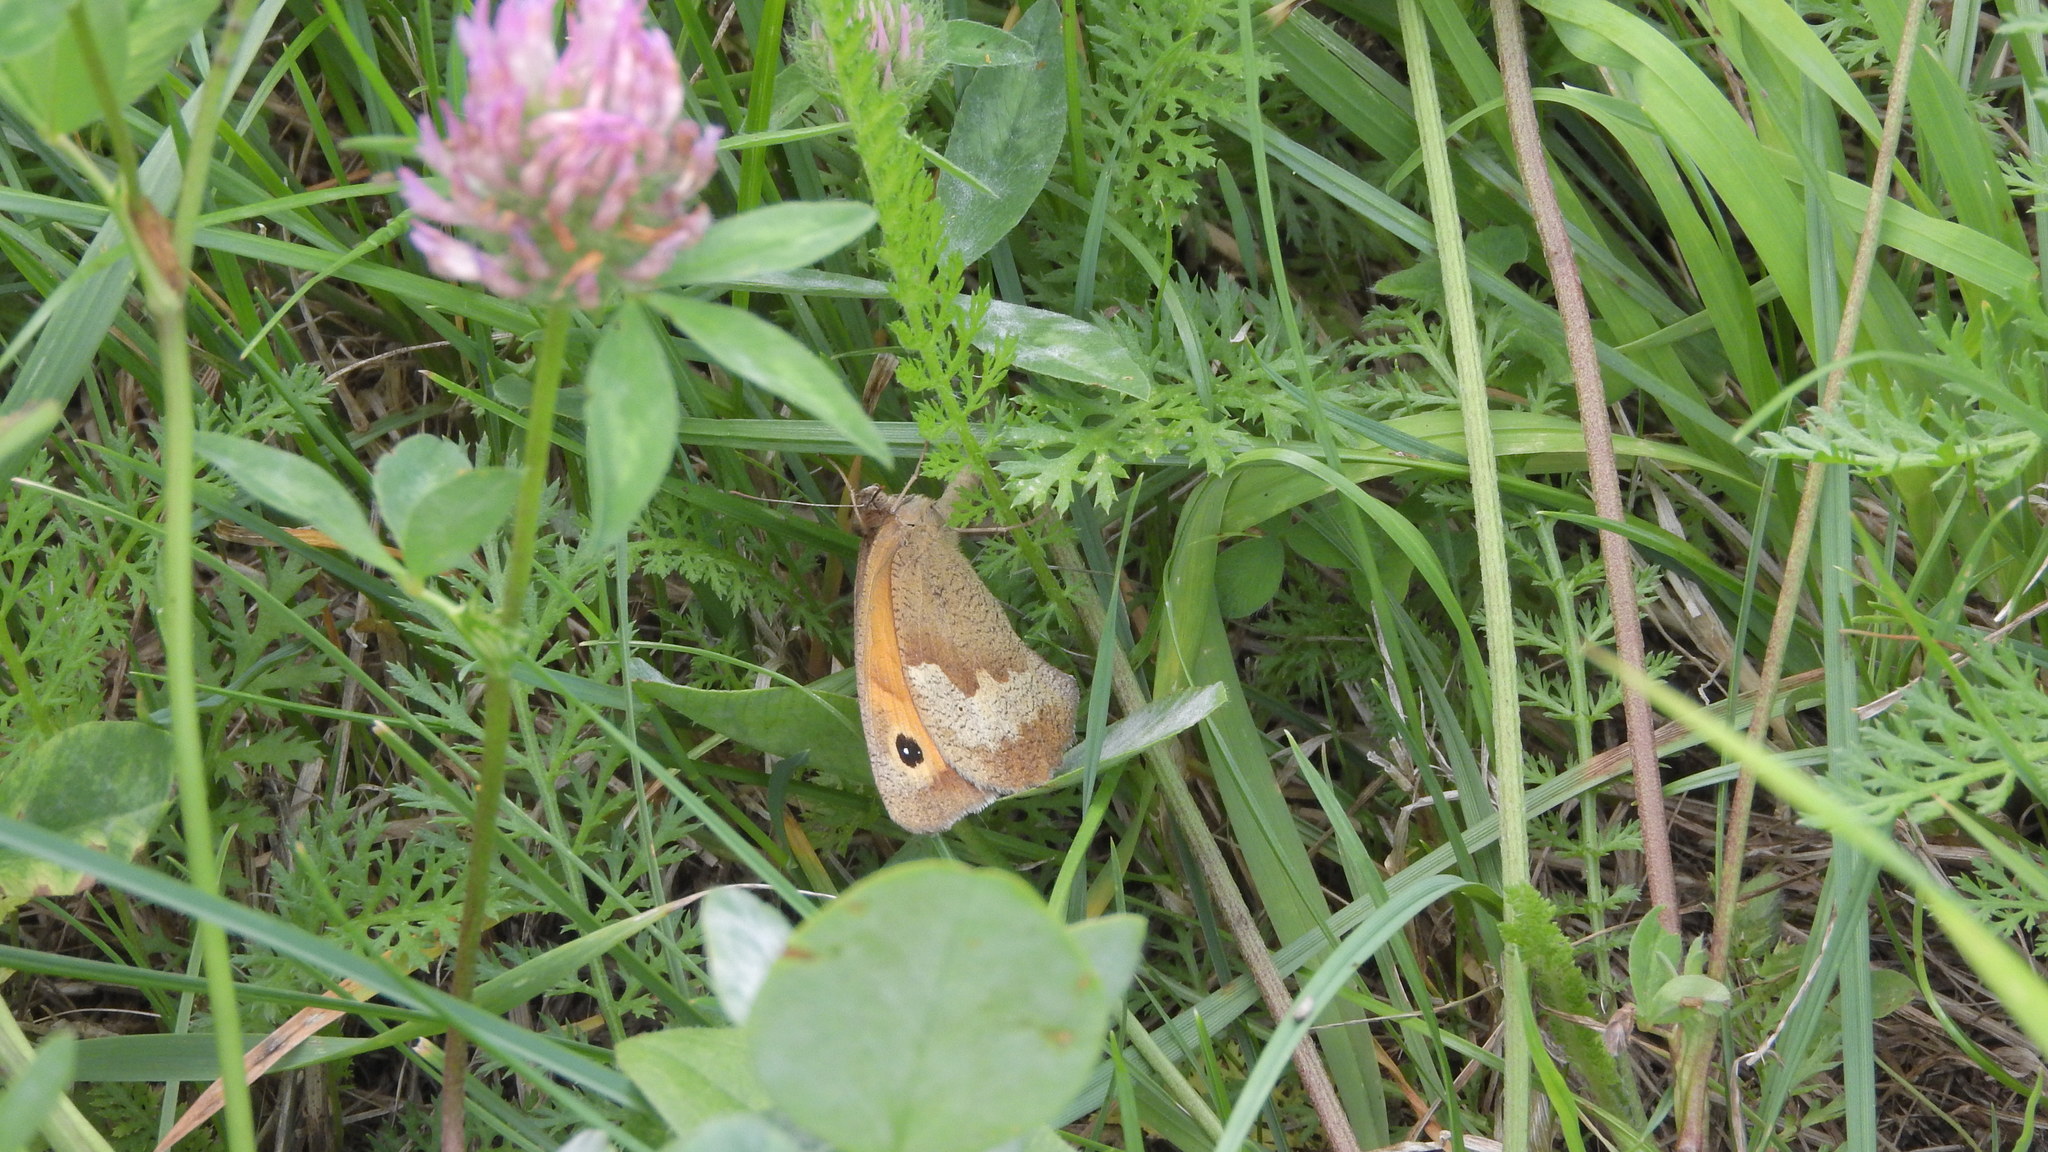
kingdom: Animalia
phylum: Arthropoda
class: Insecta
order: Lepidoptera
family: Nymphalidae
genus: Maniola
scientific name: Maniola jurtina
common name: Meadow brown
